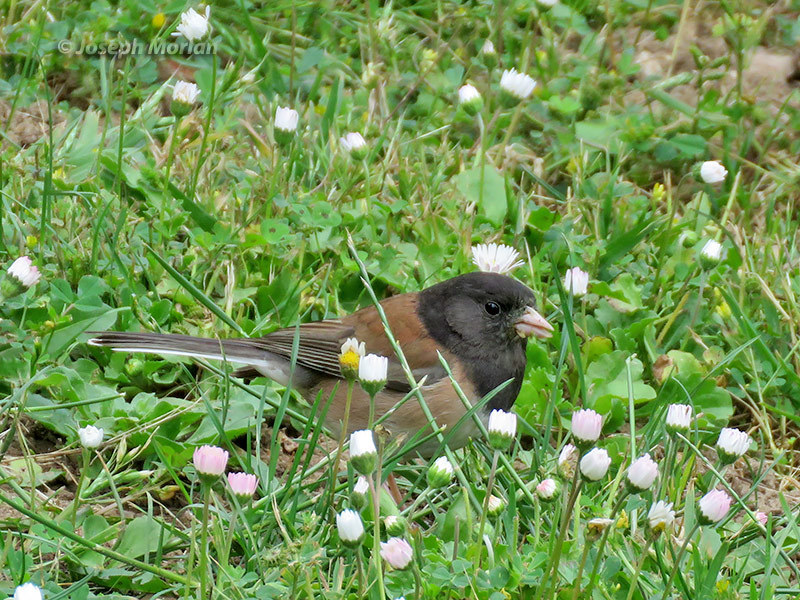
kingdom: Animalia
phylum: Chordata
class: Aves
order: Passeriformes
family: Passerellidae
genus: Junco
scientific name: Junco hyemalis
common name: Dark-eyed junco
